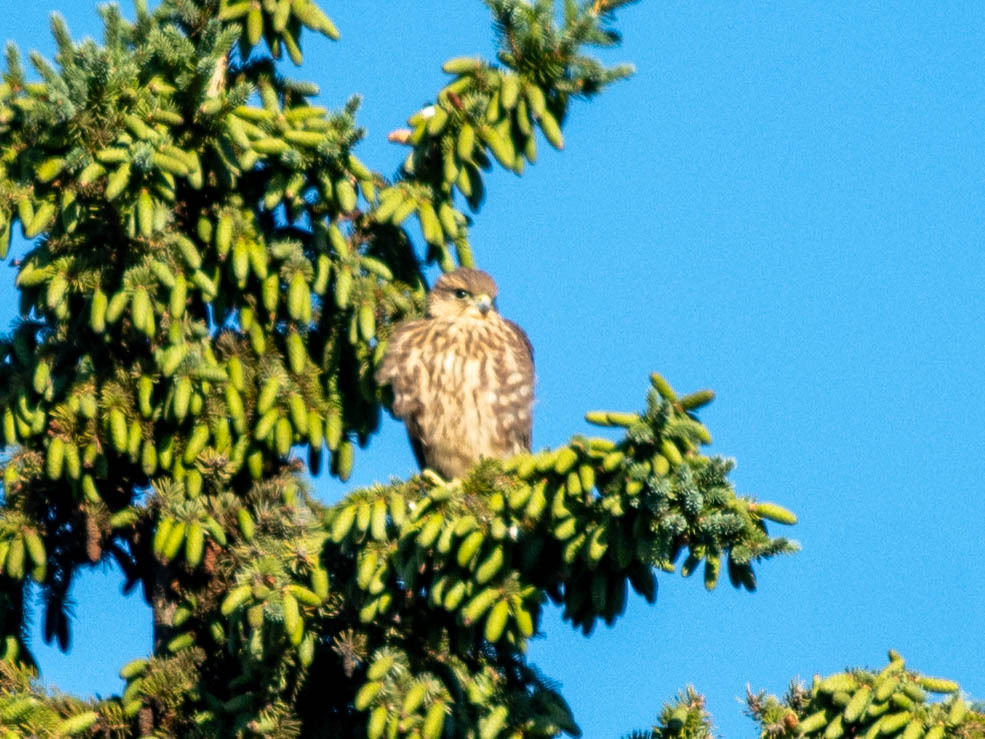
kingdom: Animalia
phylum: Chordata
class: Aves
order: Falconiformes
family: Falconidae
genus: Falco
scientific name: Falco columbarius
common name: Merlin
